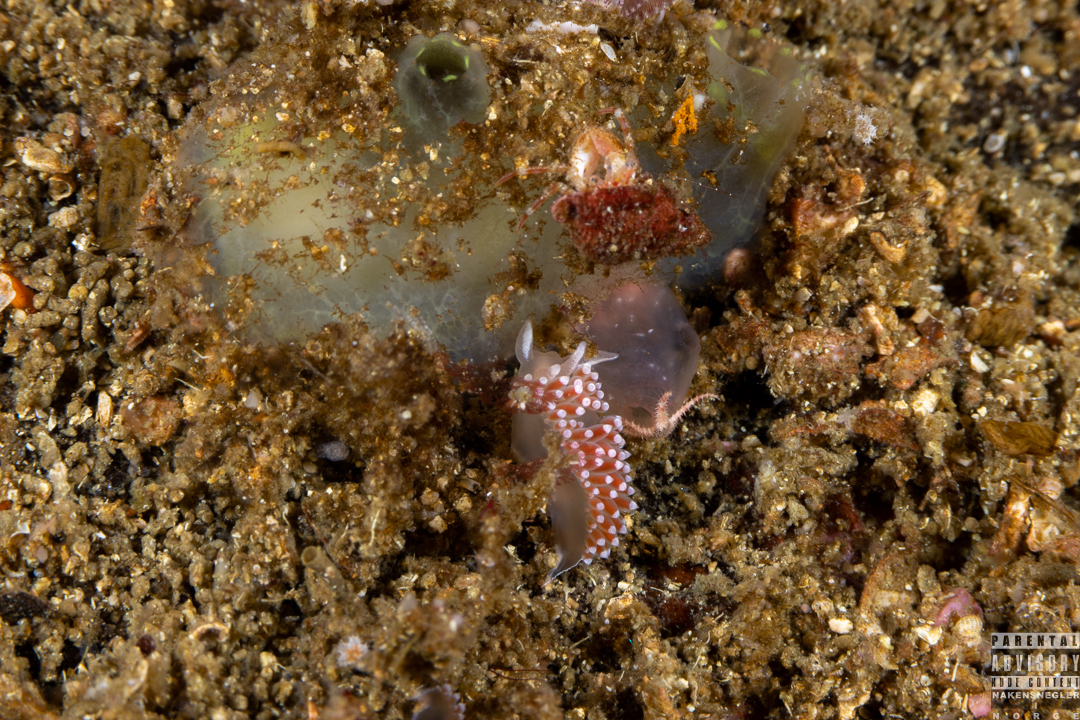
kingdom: Animalia
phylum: Mollusca
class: Gastropoda
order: Nudibranchia
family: Coryphellidae
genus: Coryphella
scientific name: Coryphella verrucosa
